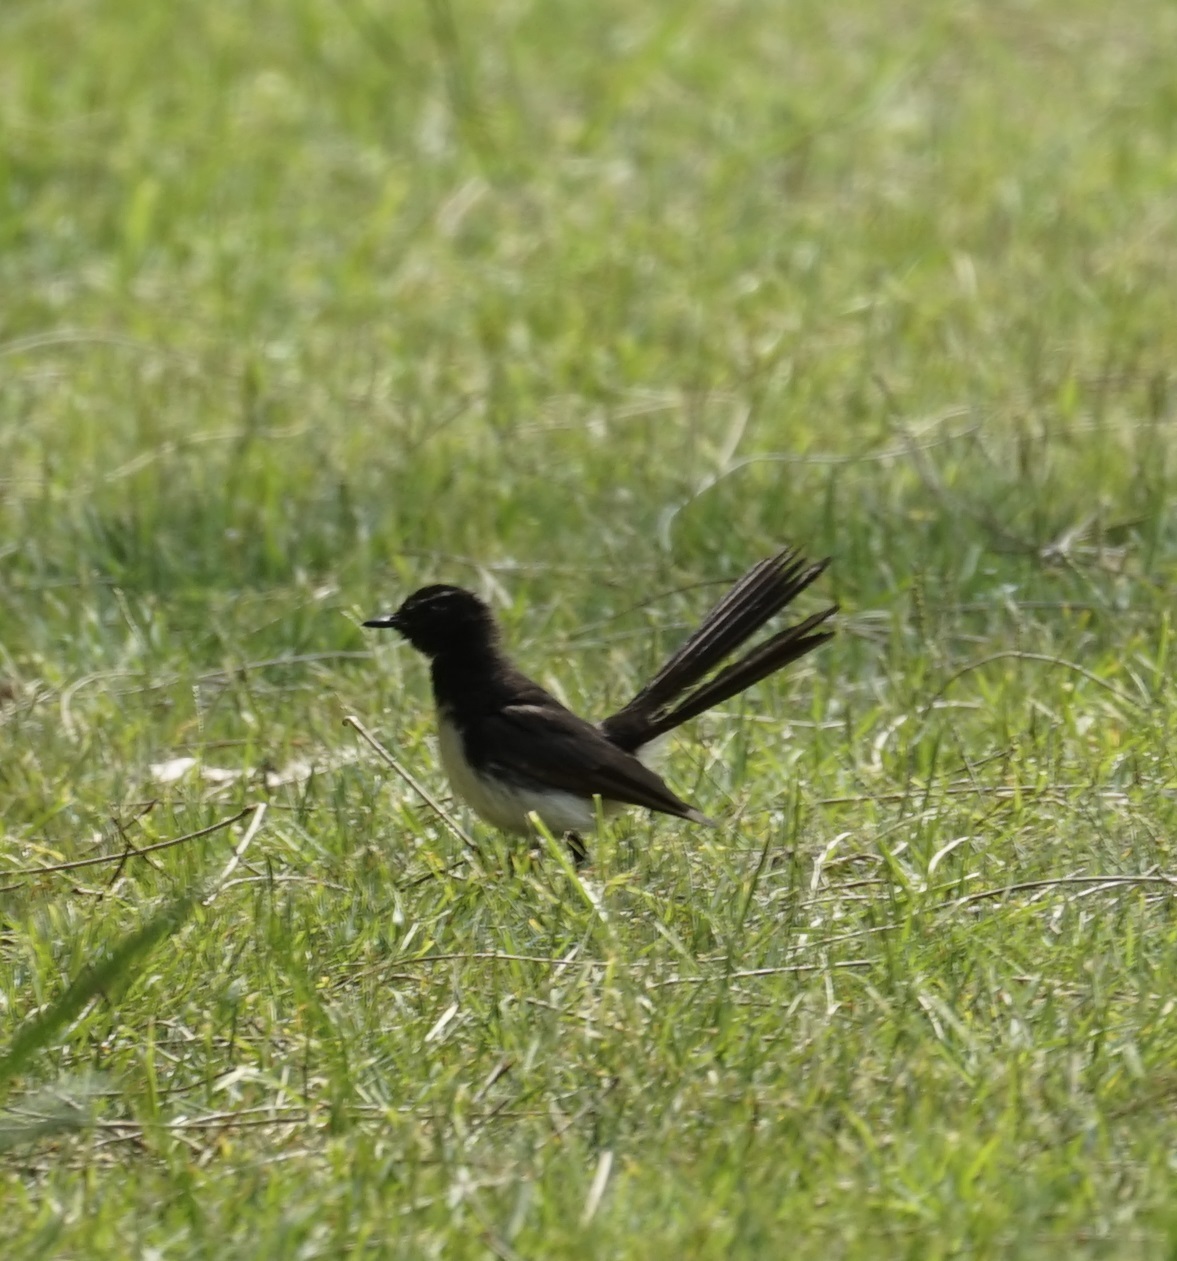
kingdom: Animalia
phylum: Chordata
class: Aves
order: Passeriformes
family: Rhipiduridae
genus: Rhipidura
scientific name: Rhipidura leucophrys
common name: Willie wagtail
